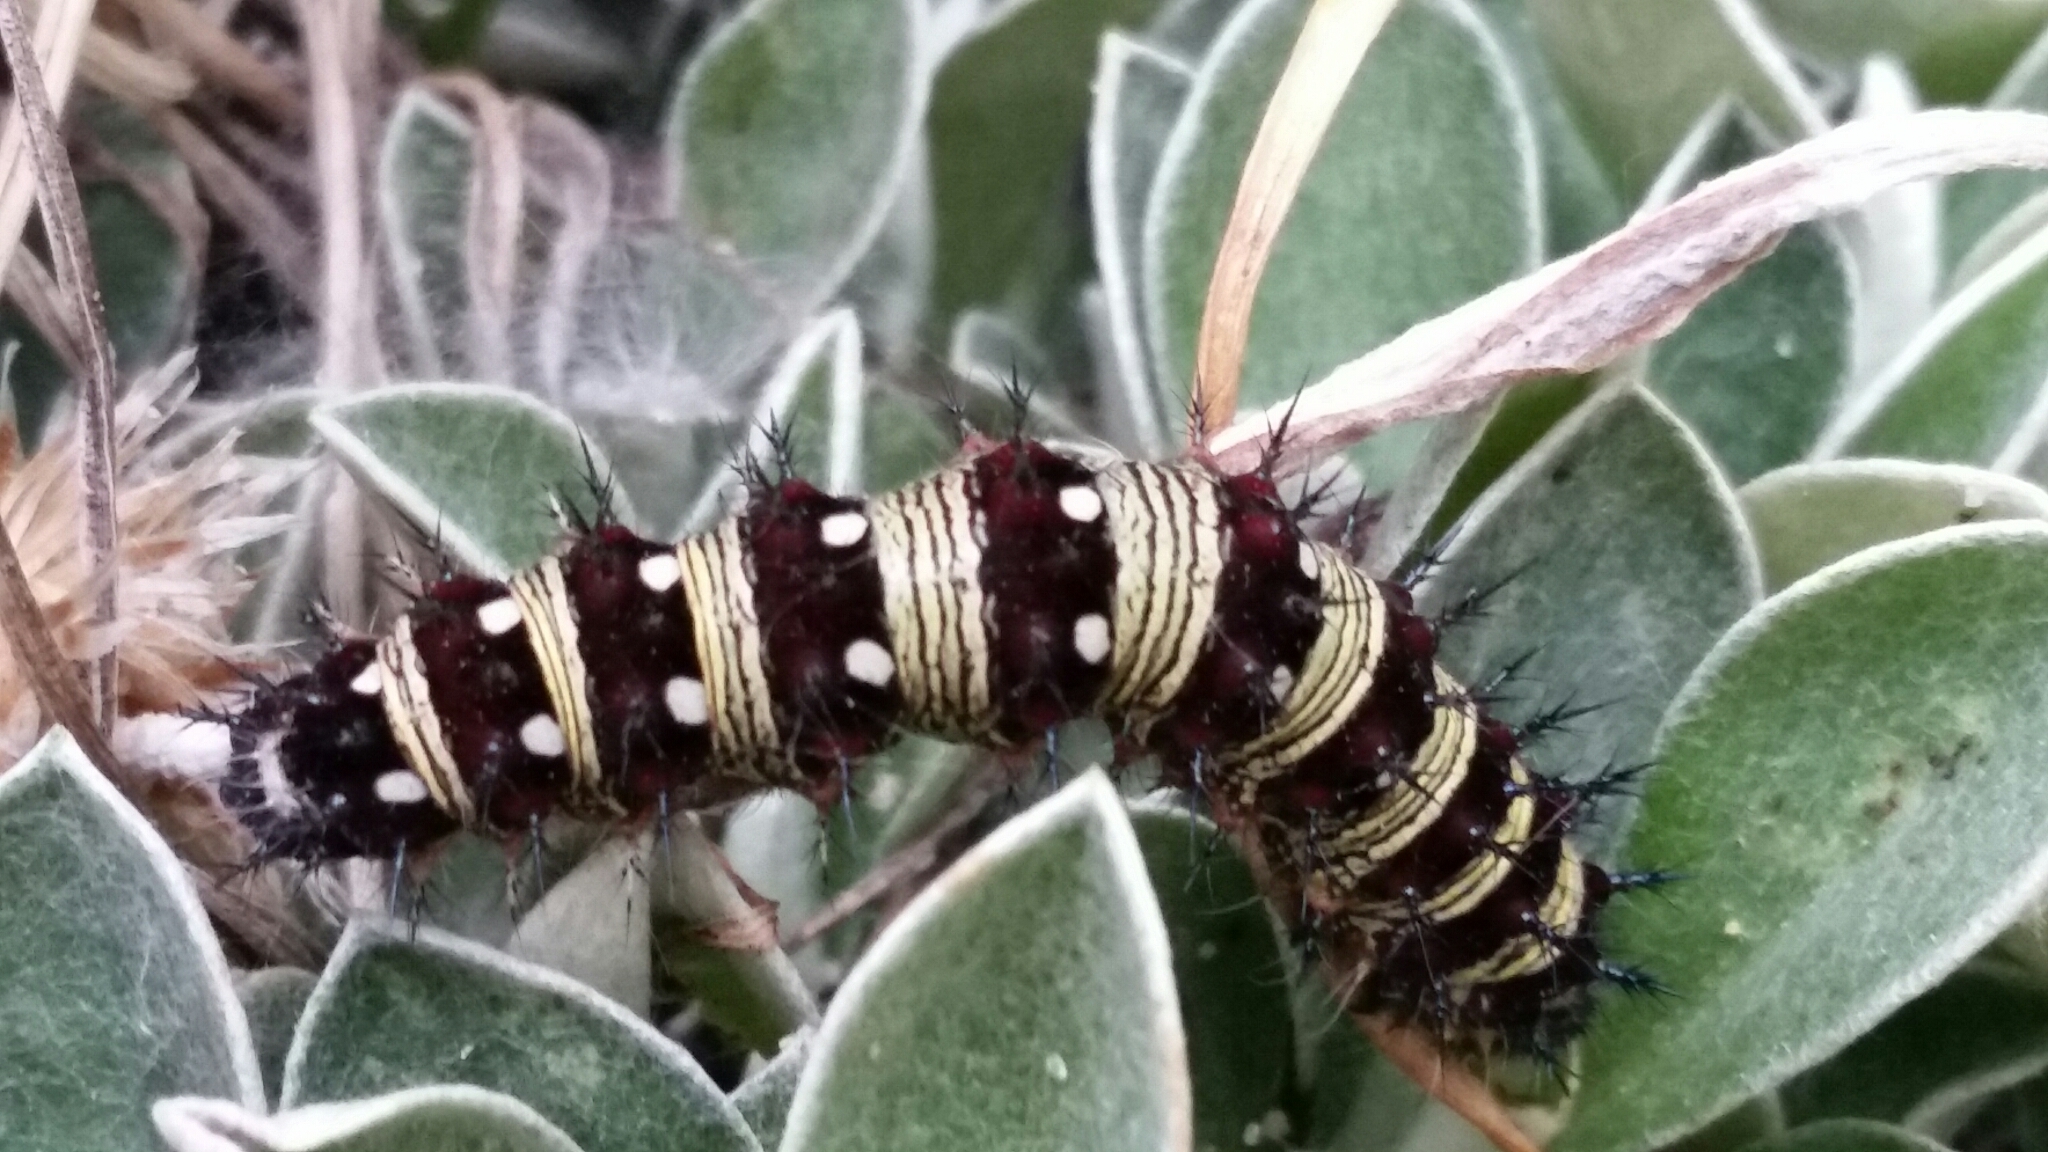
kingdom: Animalia
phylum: Arthropoda
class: Insecta
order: Lepidoptera
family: Nymphalidae
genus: Vanessa
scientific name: Vanessa virginiensis
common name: American lady
